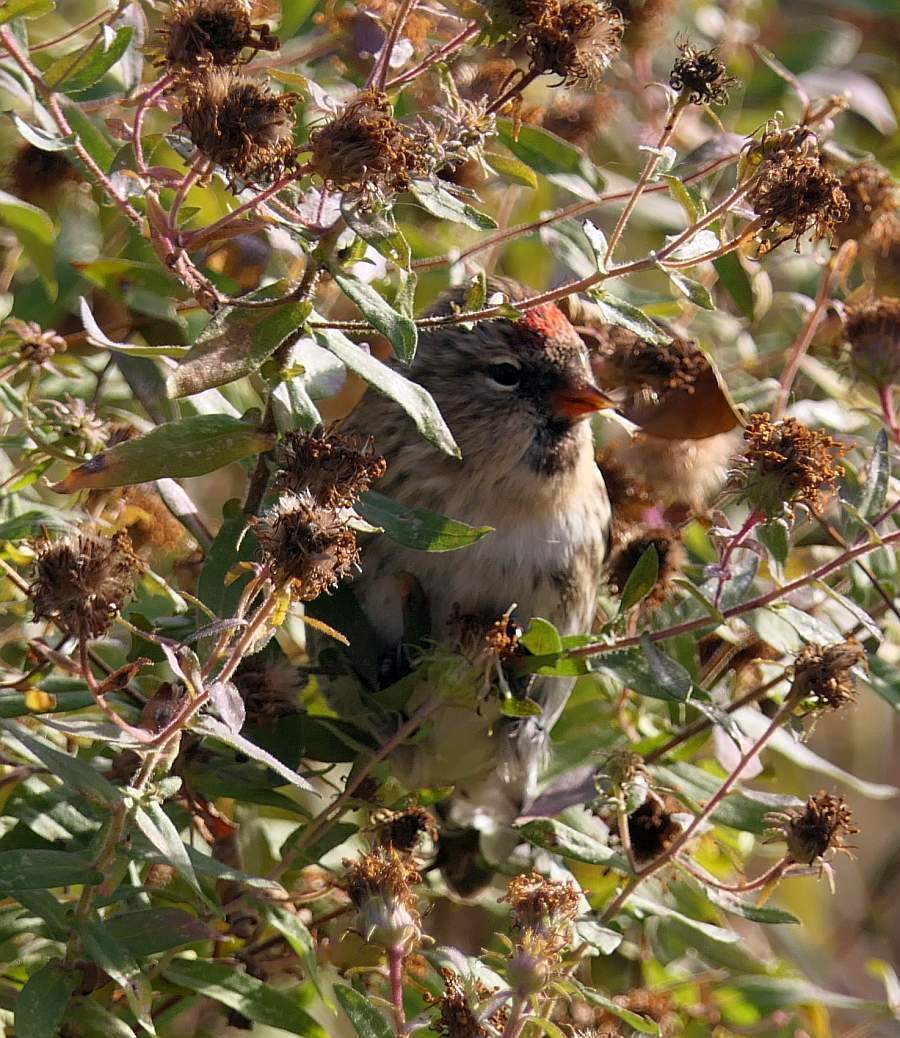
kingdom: Animalia
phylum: Chordata
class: Aves
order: Passeriformes
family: Fringillidae
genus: Acanthis
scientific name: Acanthis flammea
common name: Common redpoll
